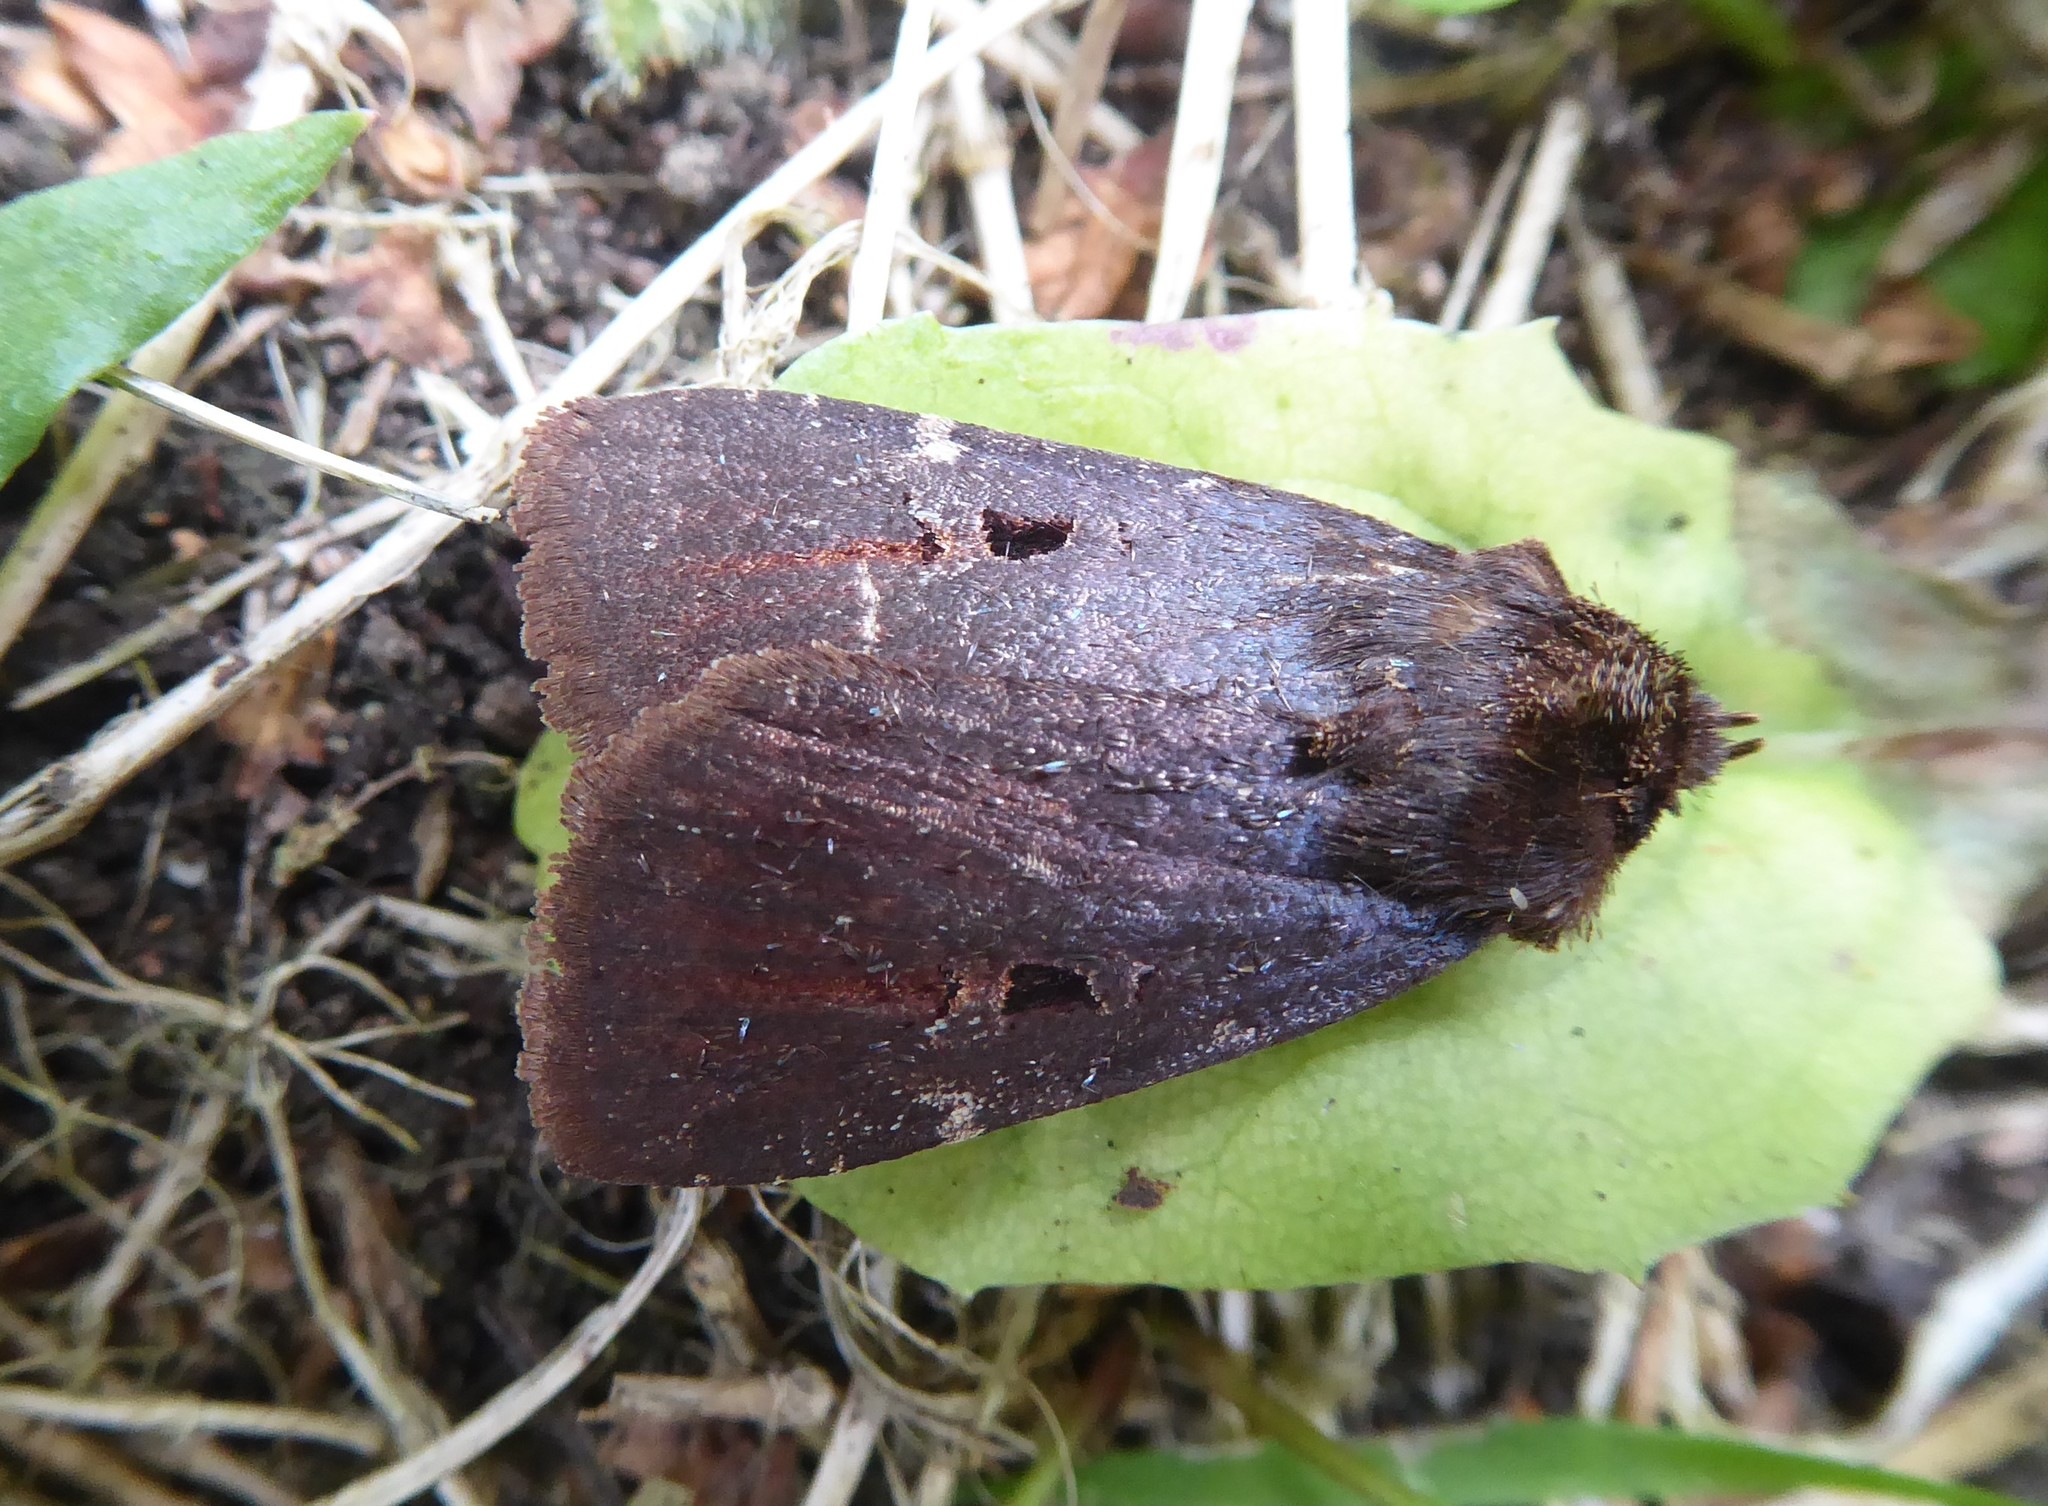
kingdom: Animalia
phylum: Arthropoda
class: Insecta
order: Lepidoptera
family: Noctuidae
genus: Austramathes
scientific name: Austramathes purpurea
